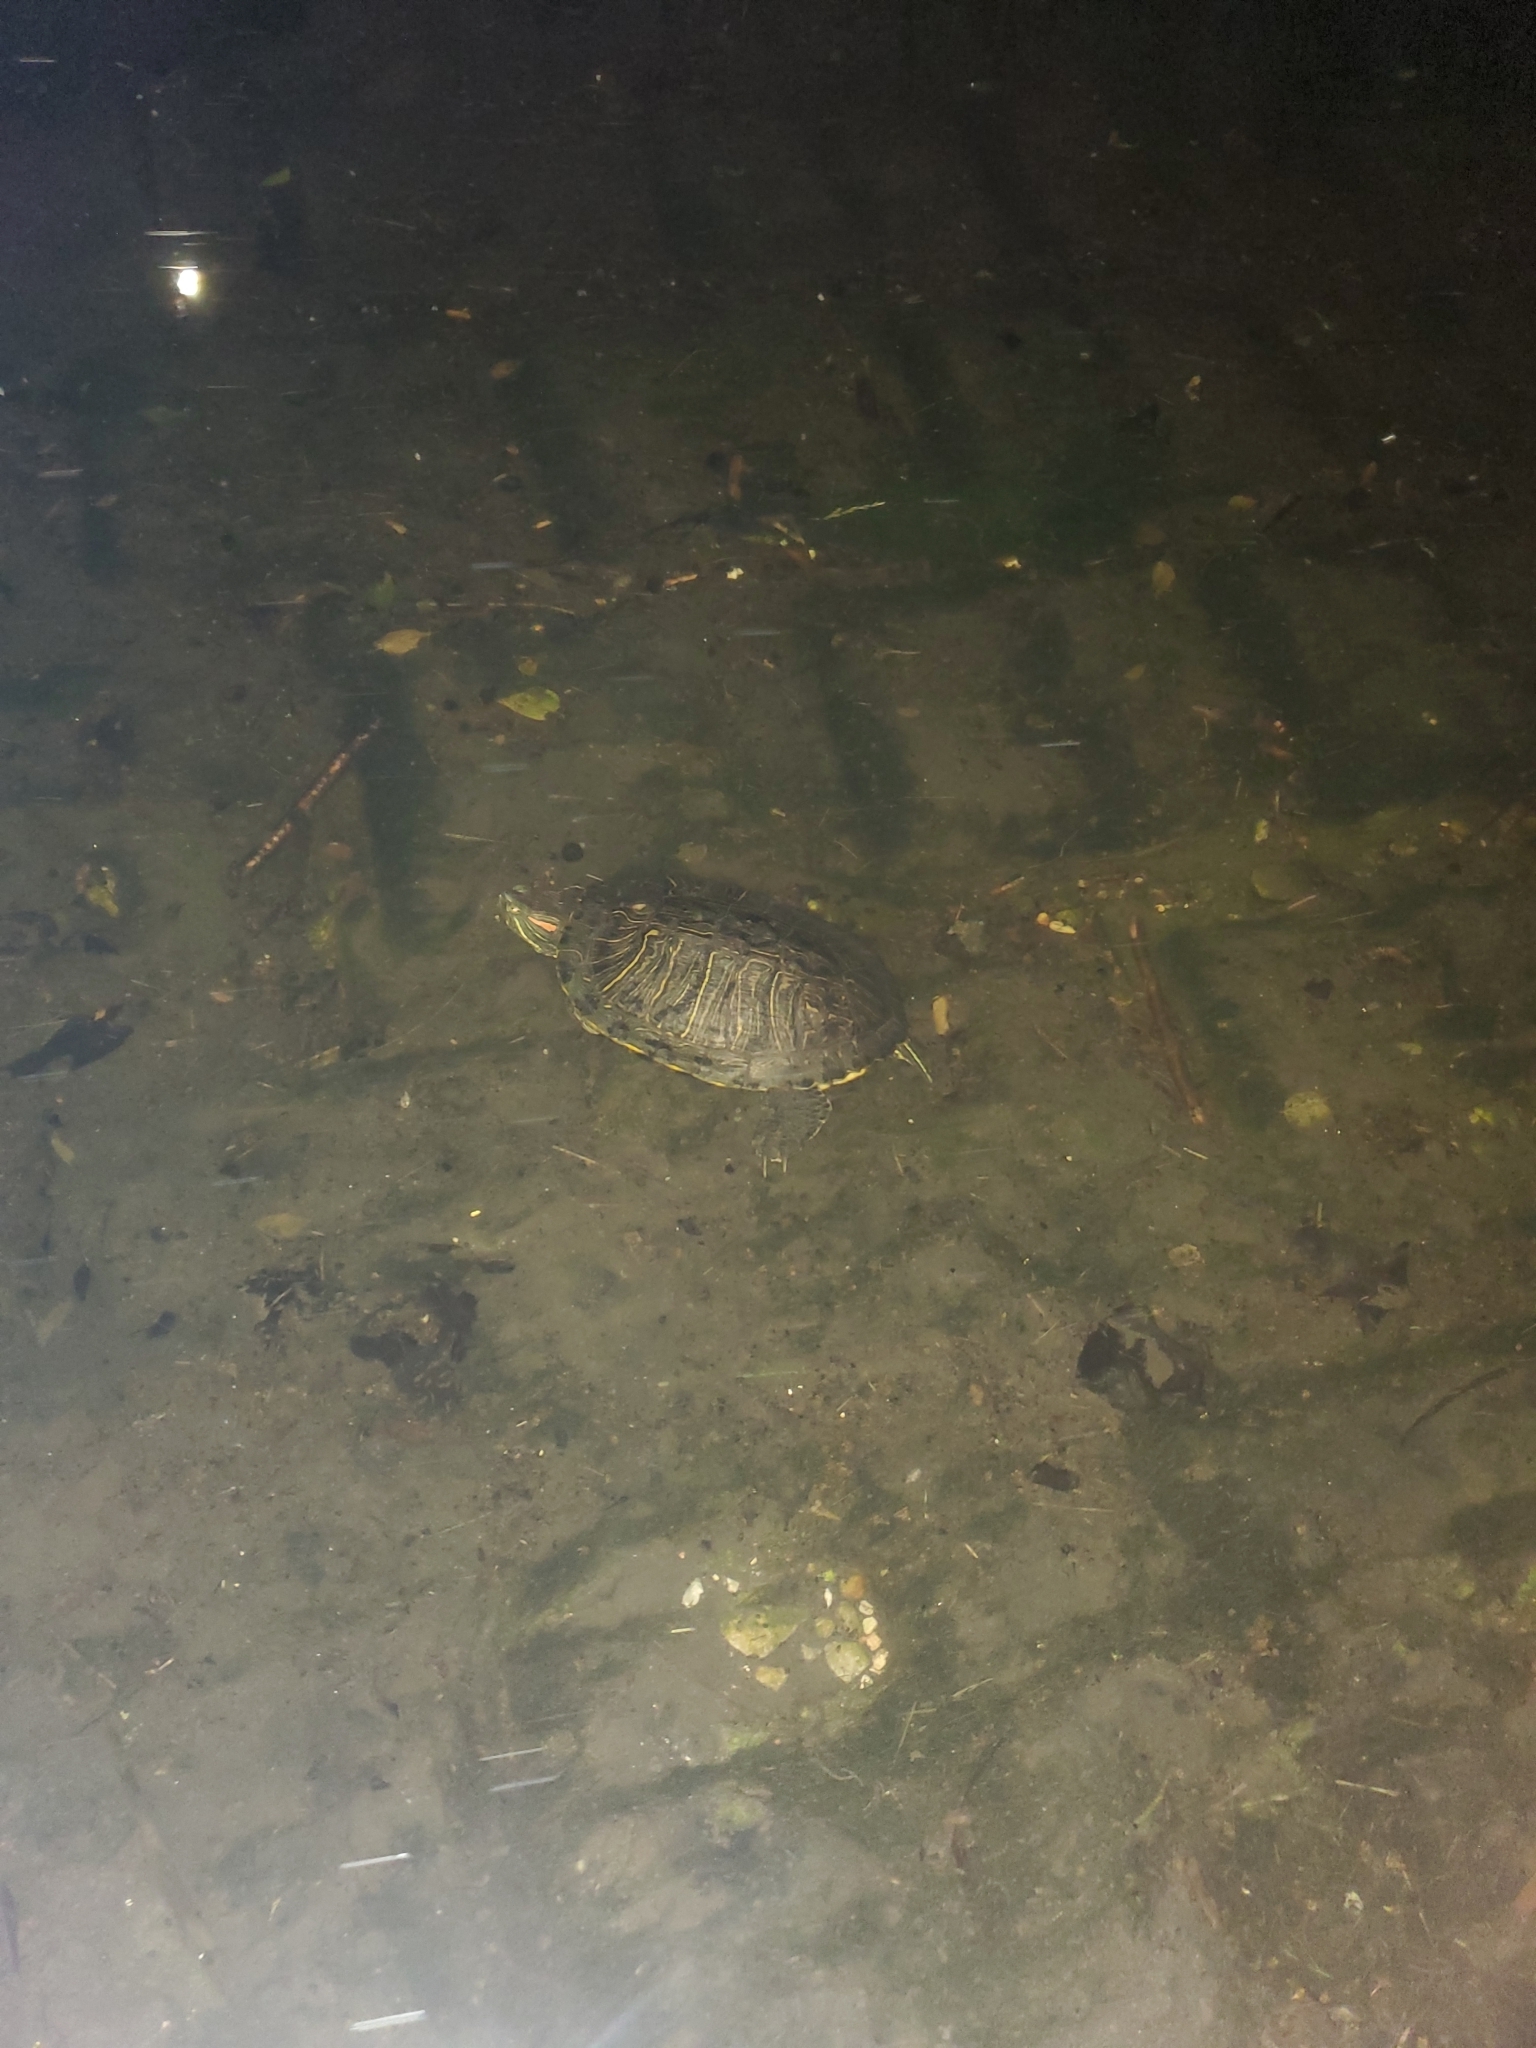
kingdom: Animalia
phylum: Chordata
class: Testudines
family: Emydidae
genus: Trachemys
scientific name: Trachemys scripta
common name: Slider
